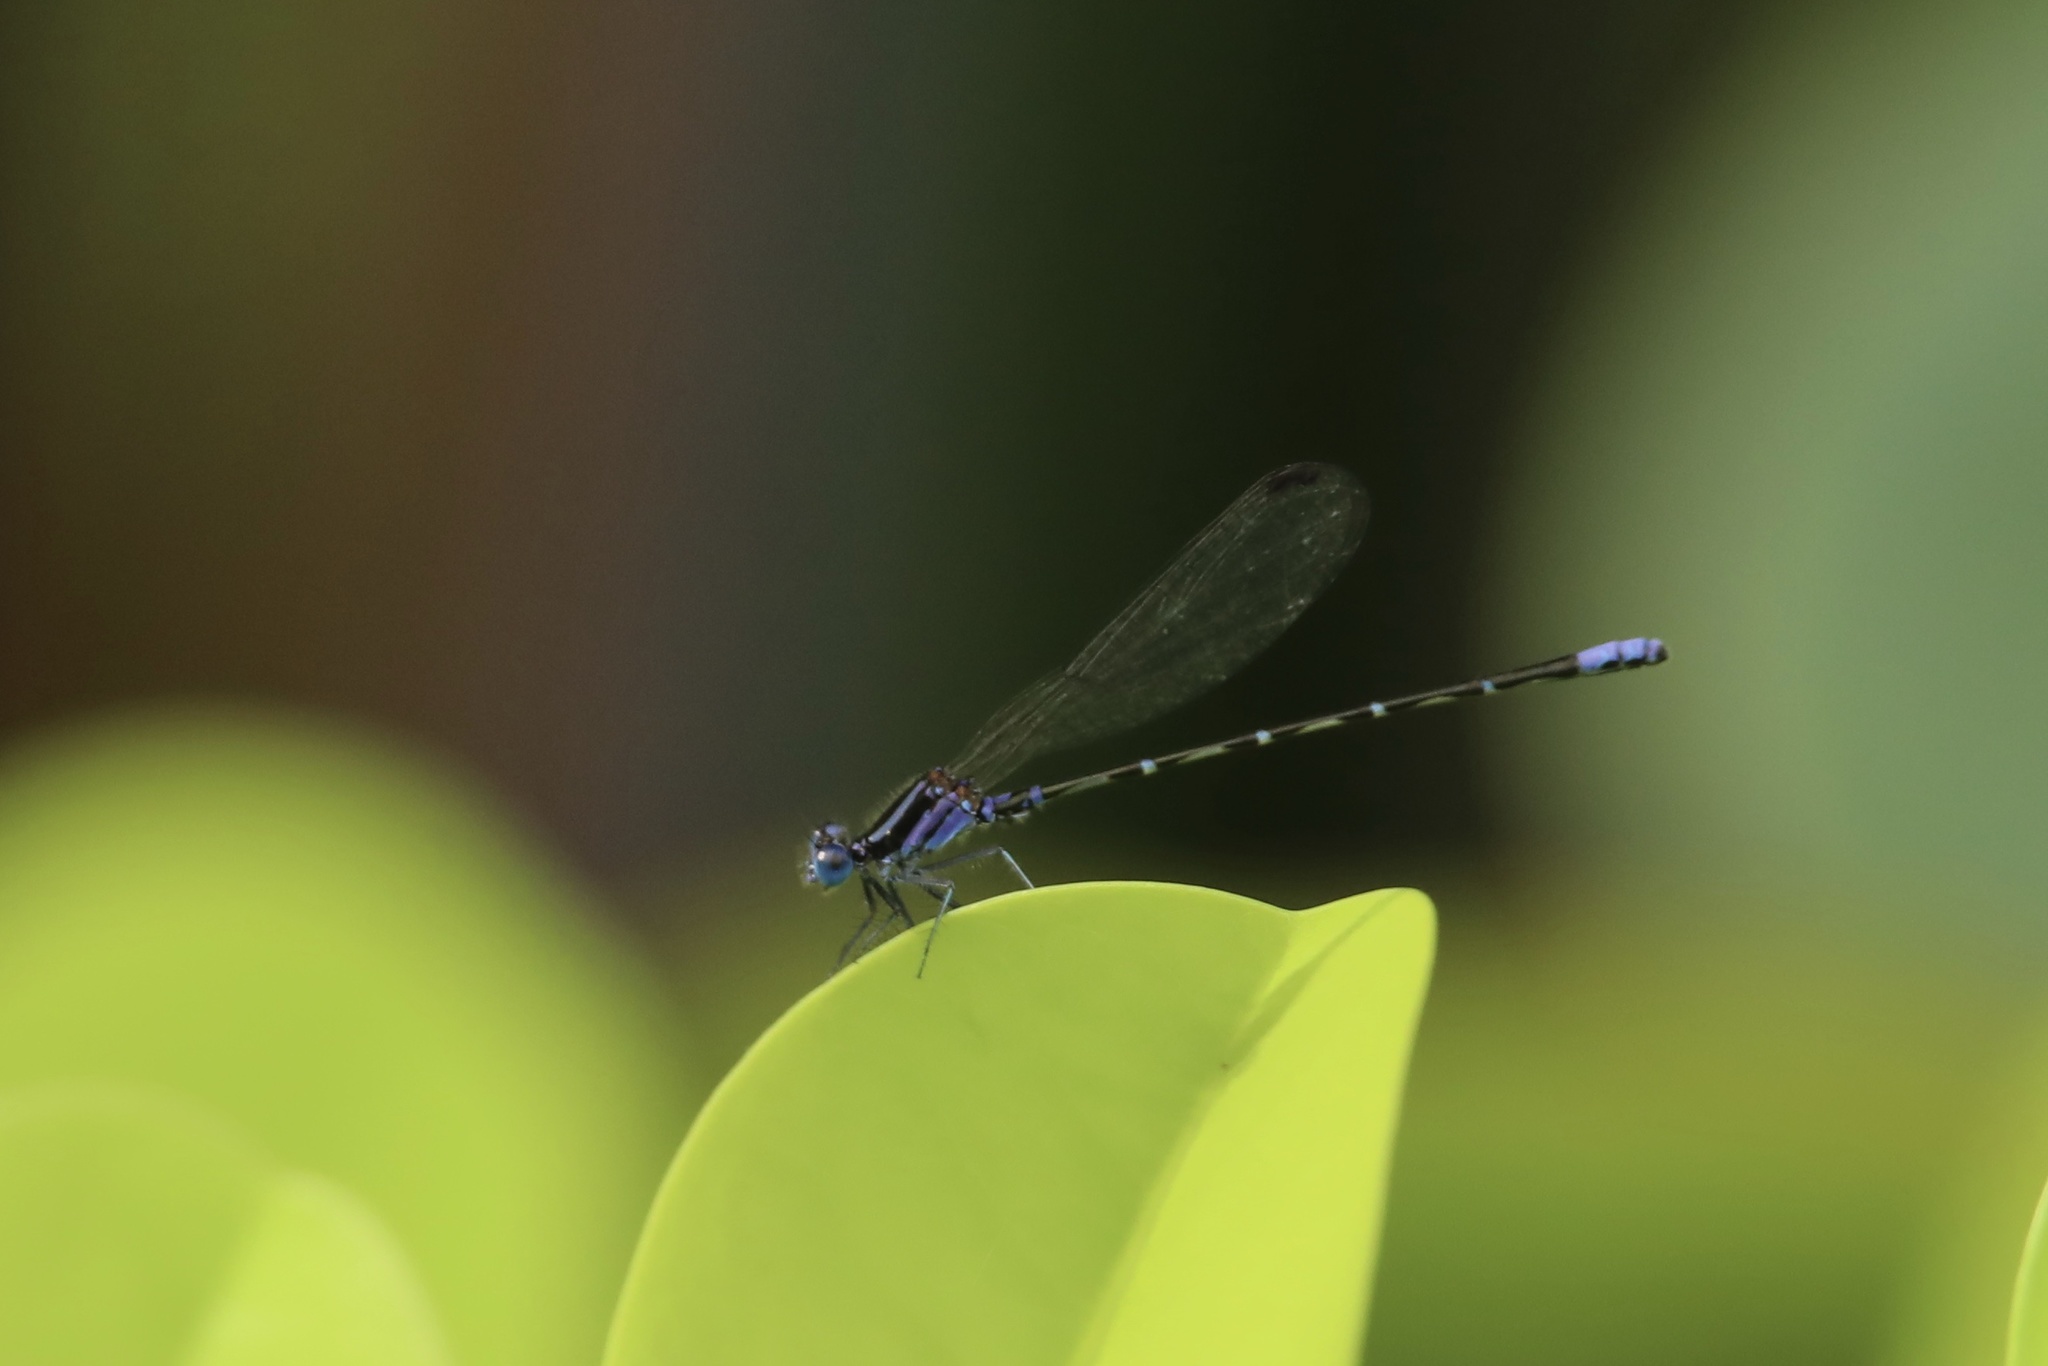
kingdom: Animalia
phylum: Arthropoda
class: Insecta
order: Odonata
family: Coenagrionidae
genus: Argia
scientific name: Argia pulla
